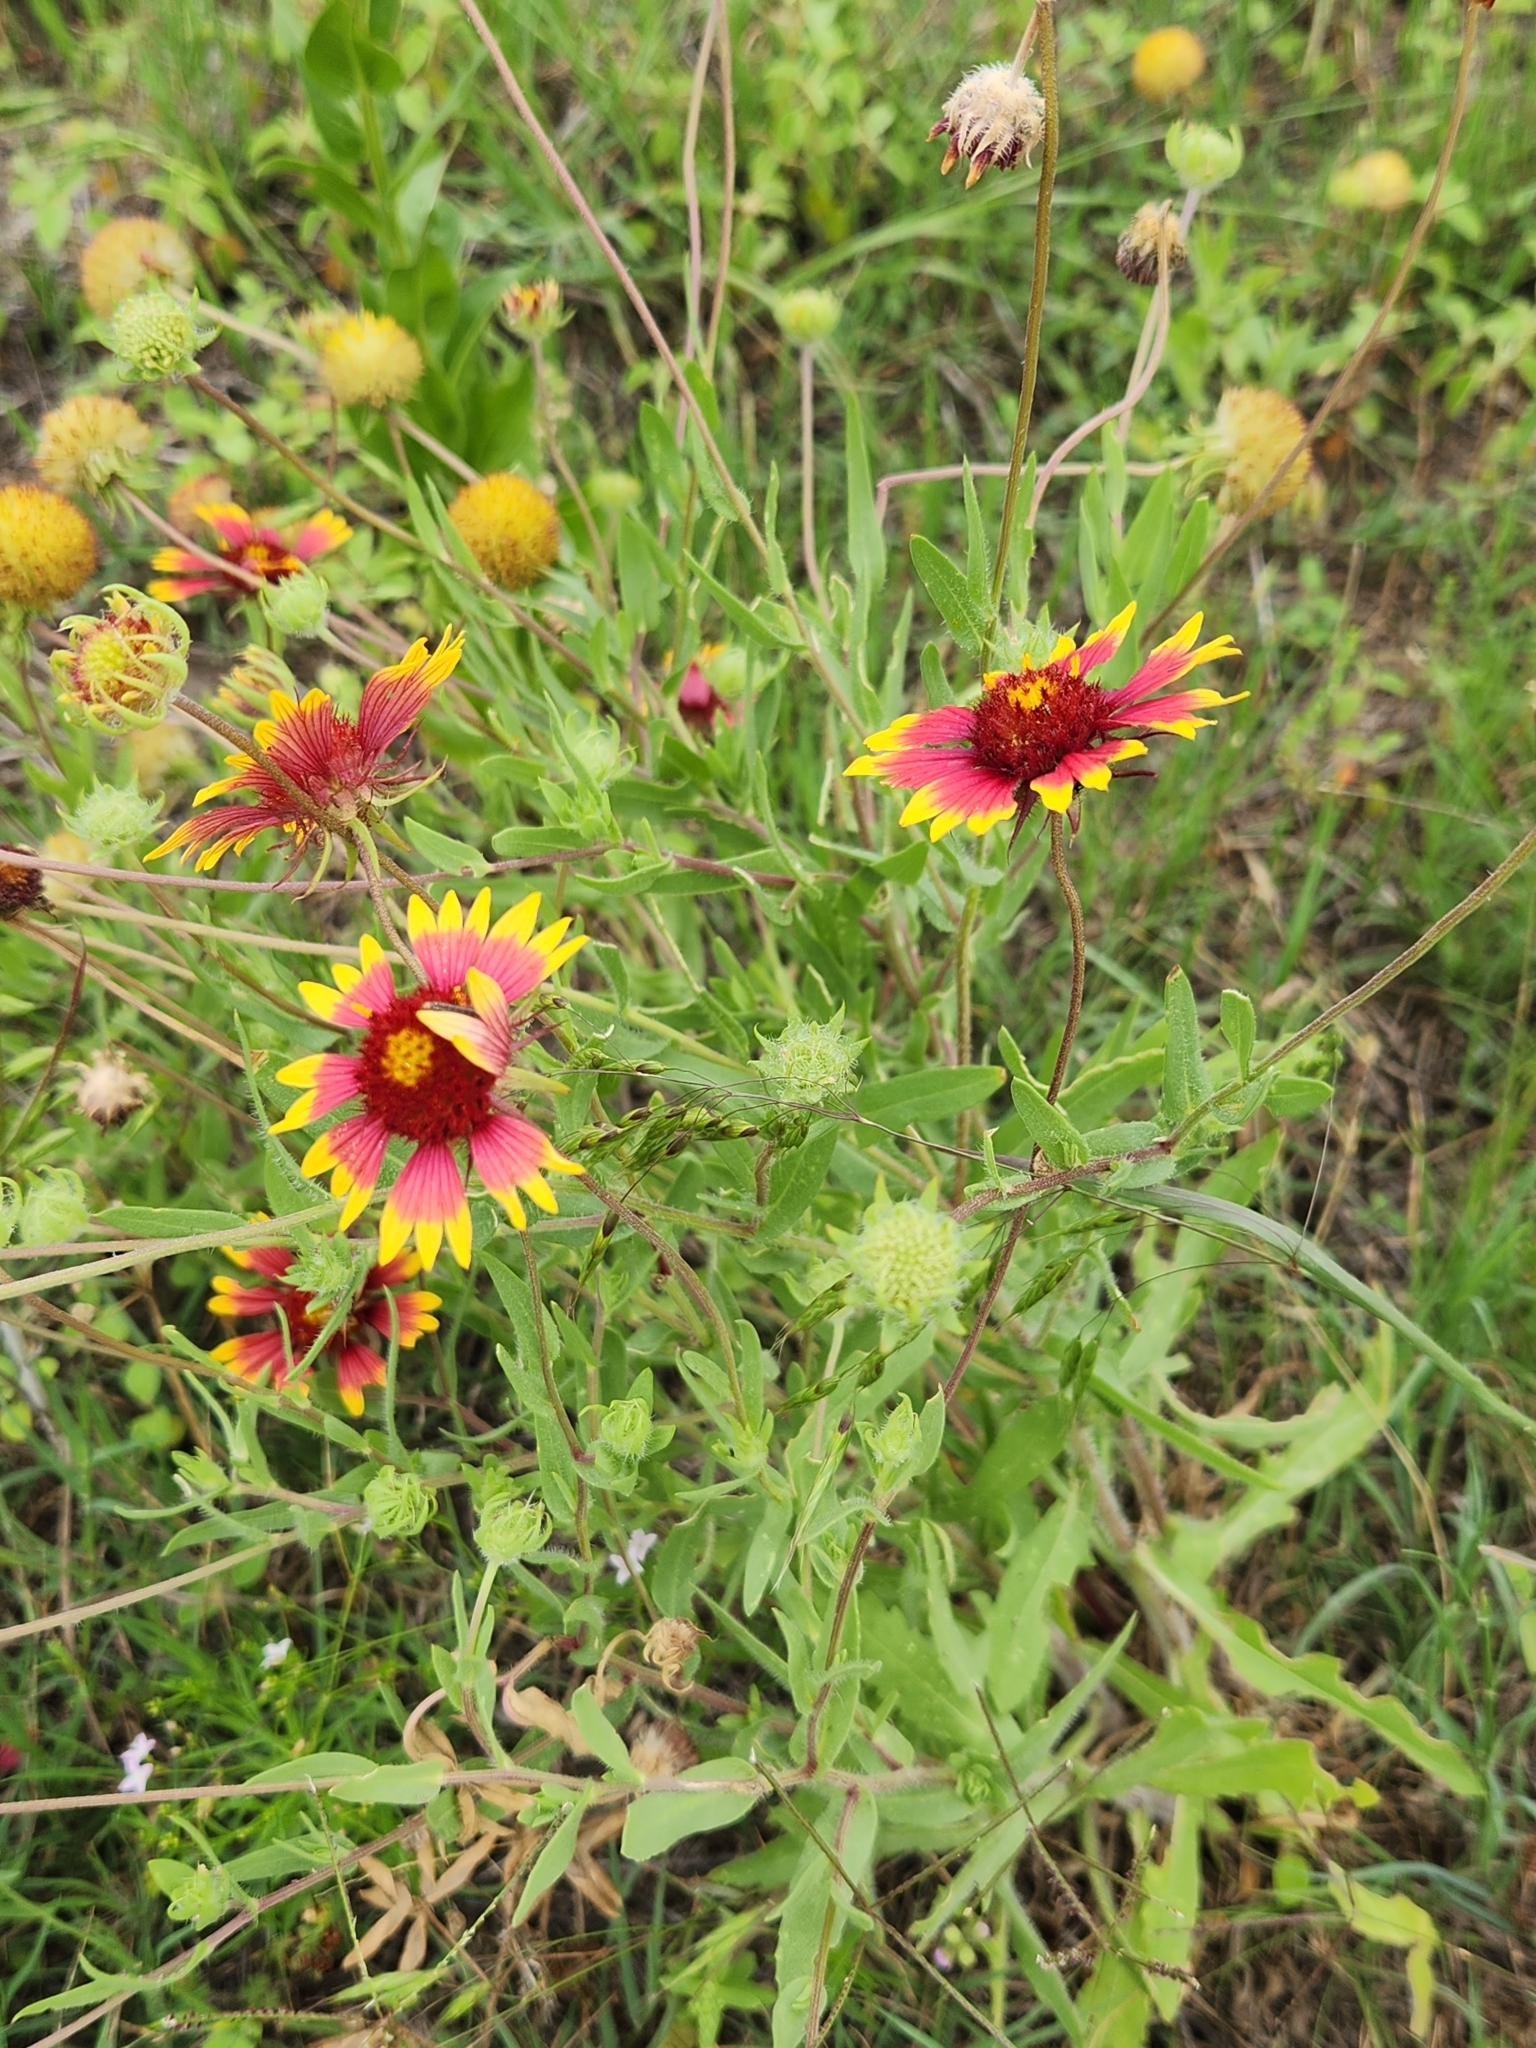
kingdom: Plantae
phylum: Tracheophyta
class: Magnoliopsida
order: Asterales
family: Asteraceae
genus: Gaillardia
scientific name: Gaillardia pulchella
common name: Firewheel
